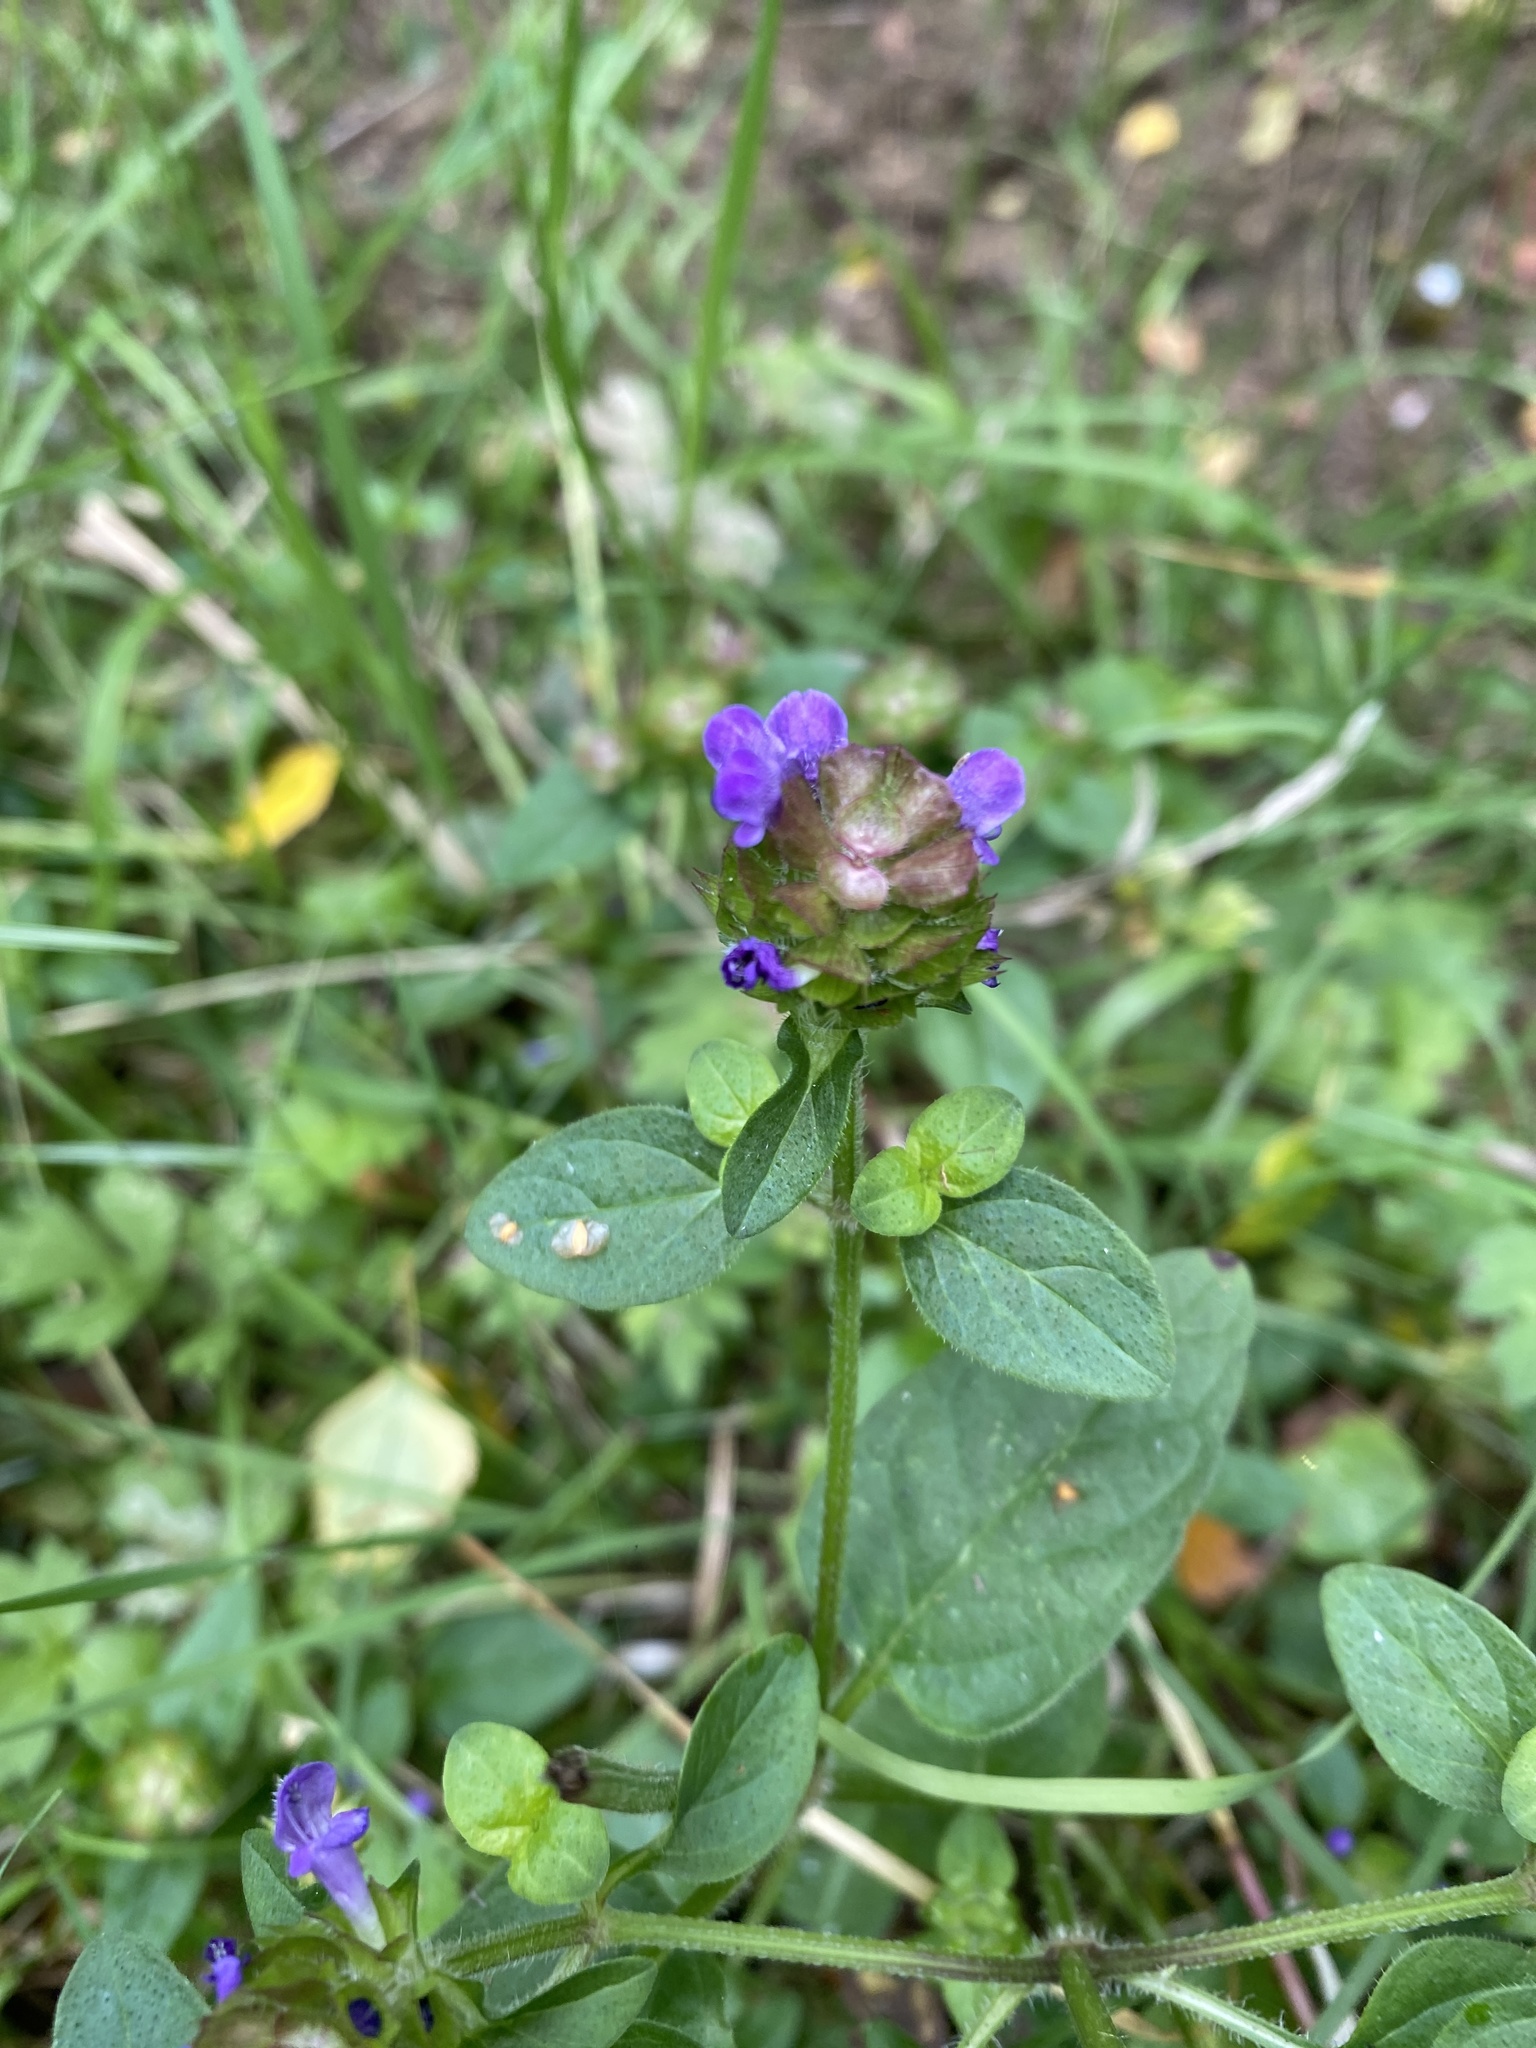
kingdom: Plantae
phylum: Tracheophyta
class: Magnoliopsida
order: Lamiales
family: Lamiaceae
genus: Prunella
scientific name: Prunella vulgaris
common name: Heal-all
